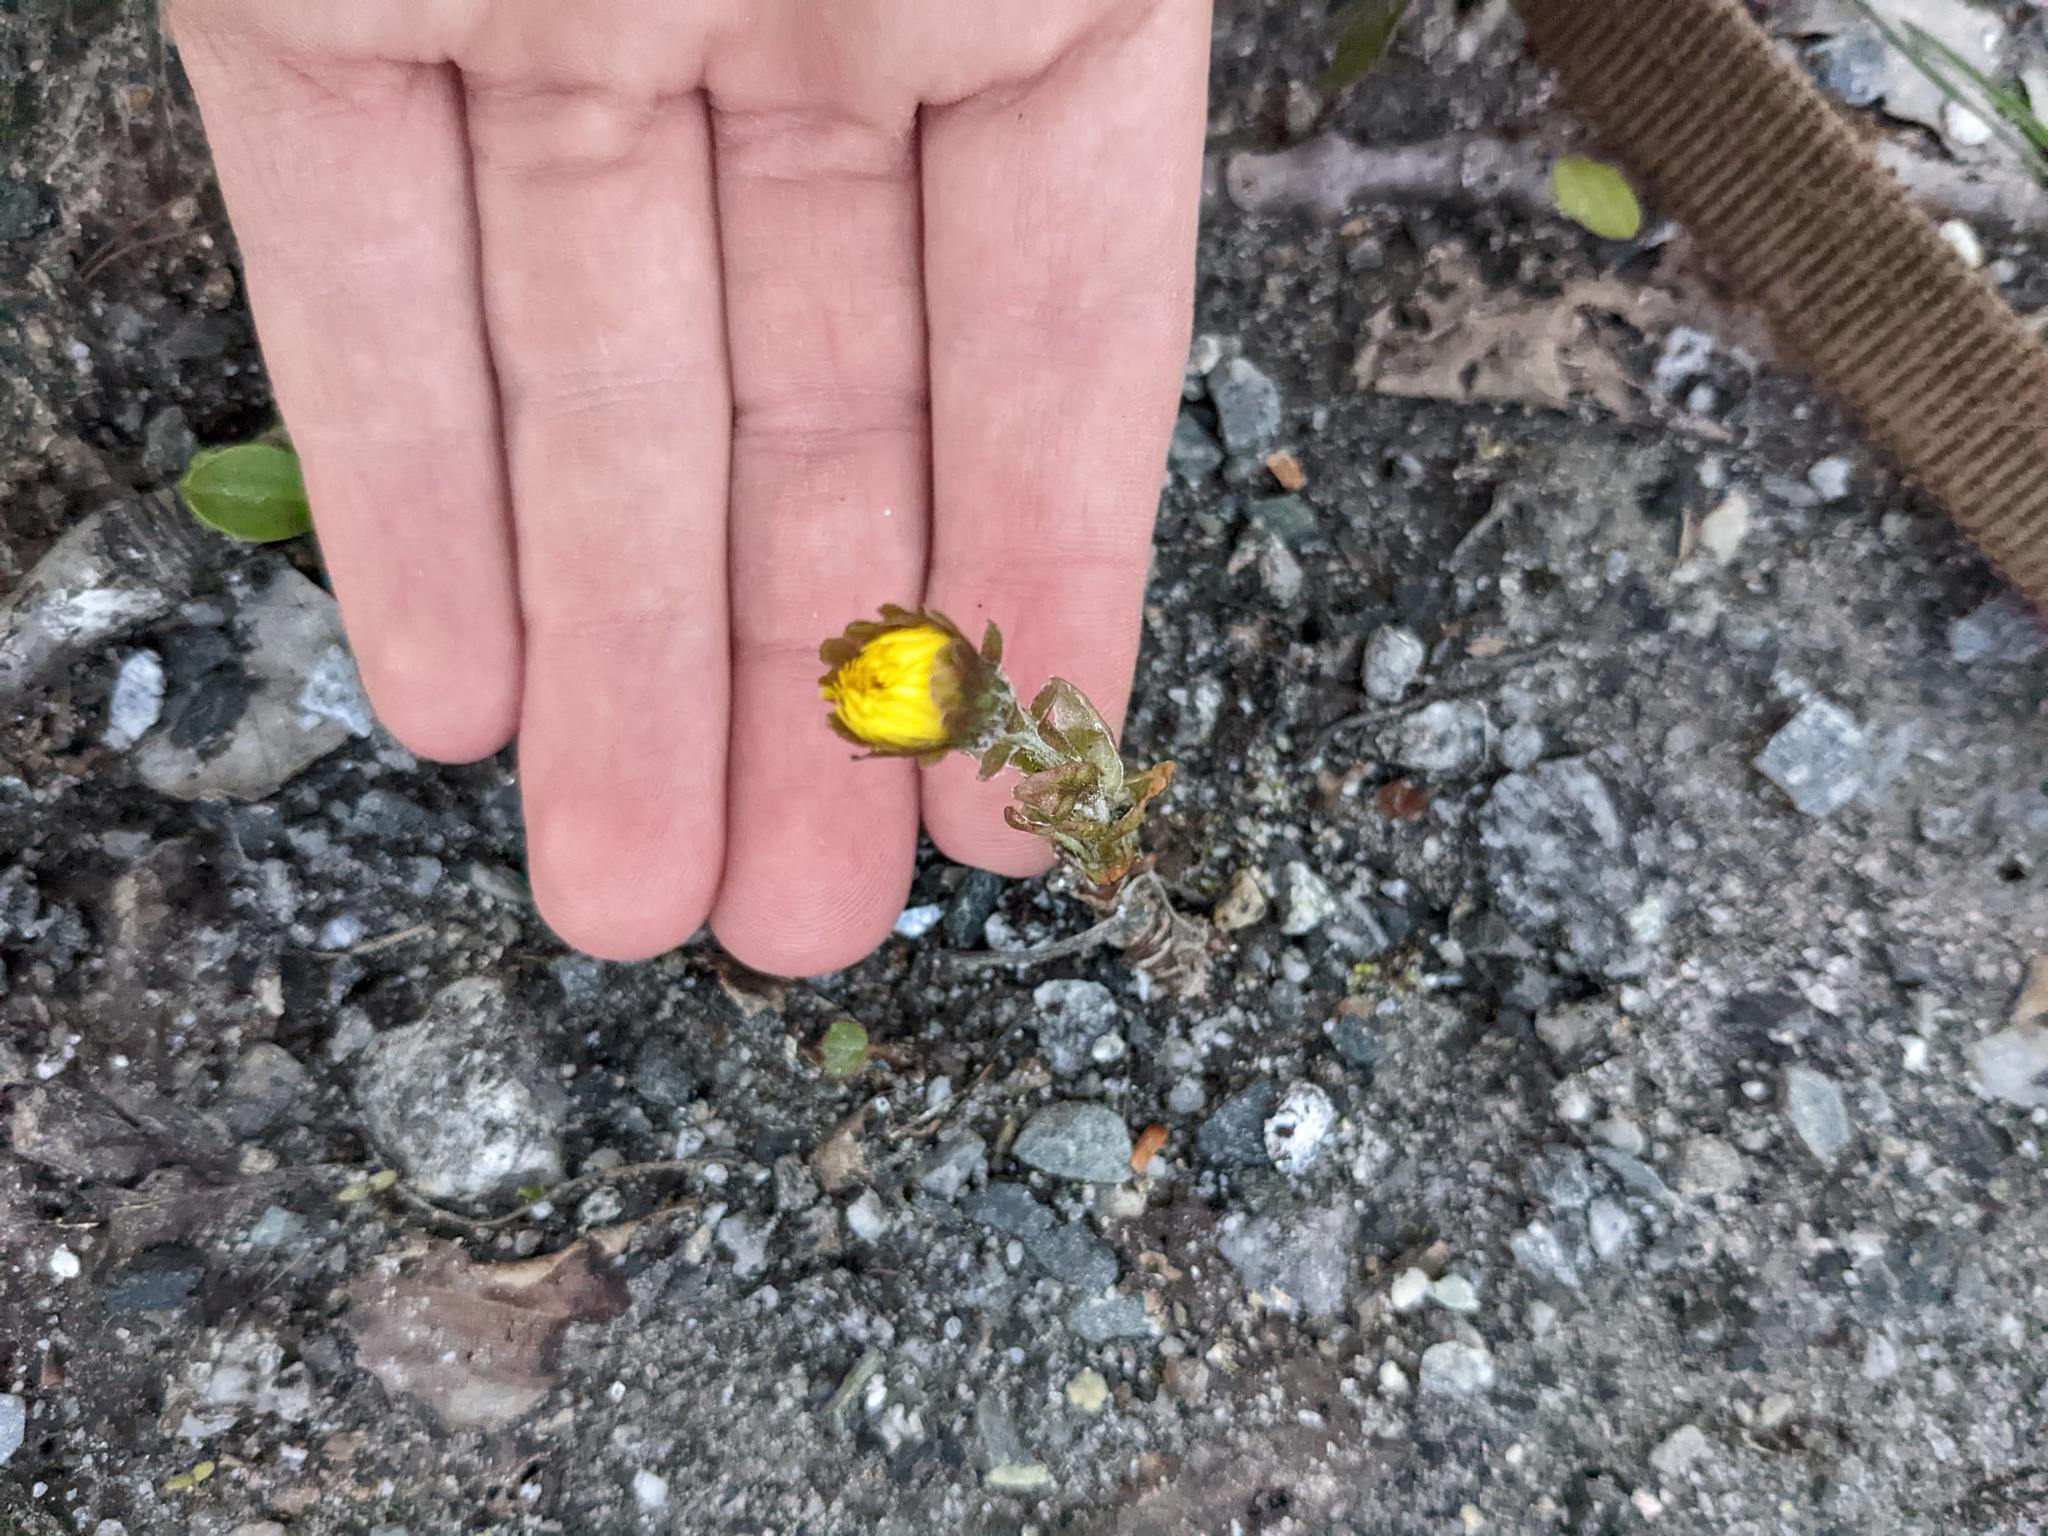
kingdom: Plantae
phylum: Tracheophyta
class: Magnoliopsida
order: Asterales
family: Asteraceae
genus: Tussilago
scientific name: Tussilago farfara
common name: Coltsfoot
